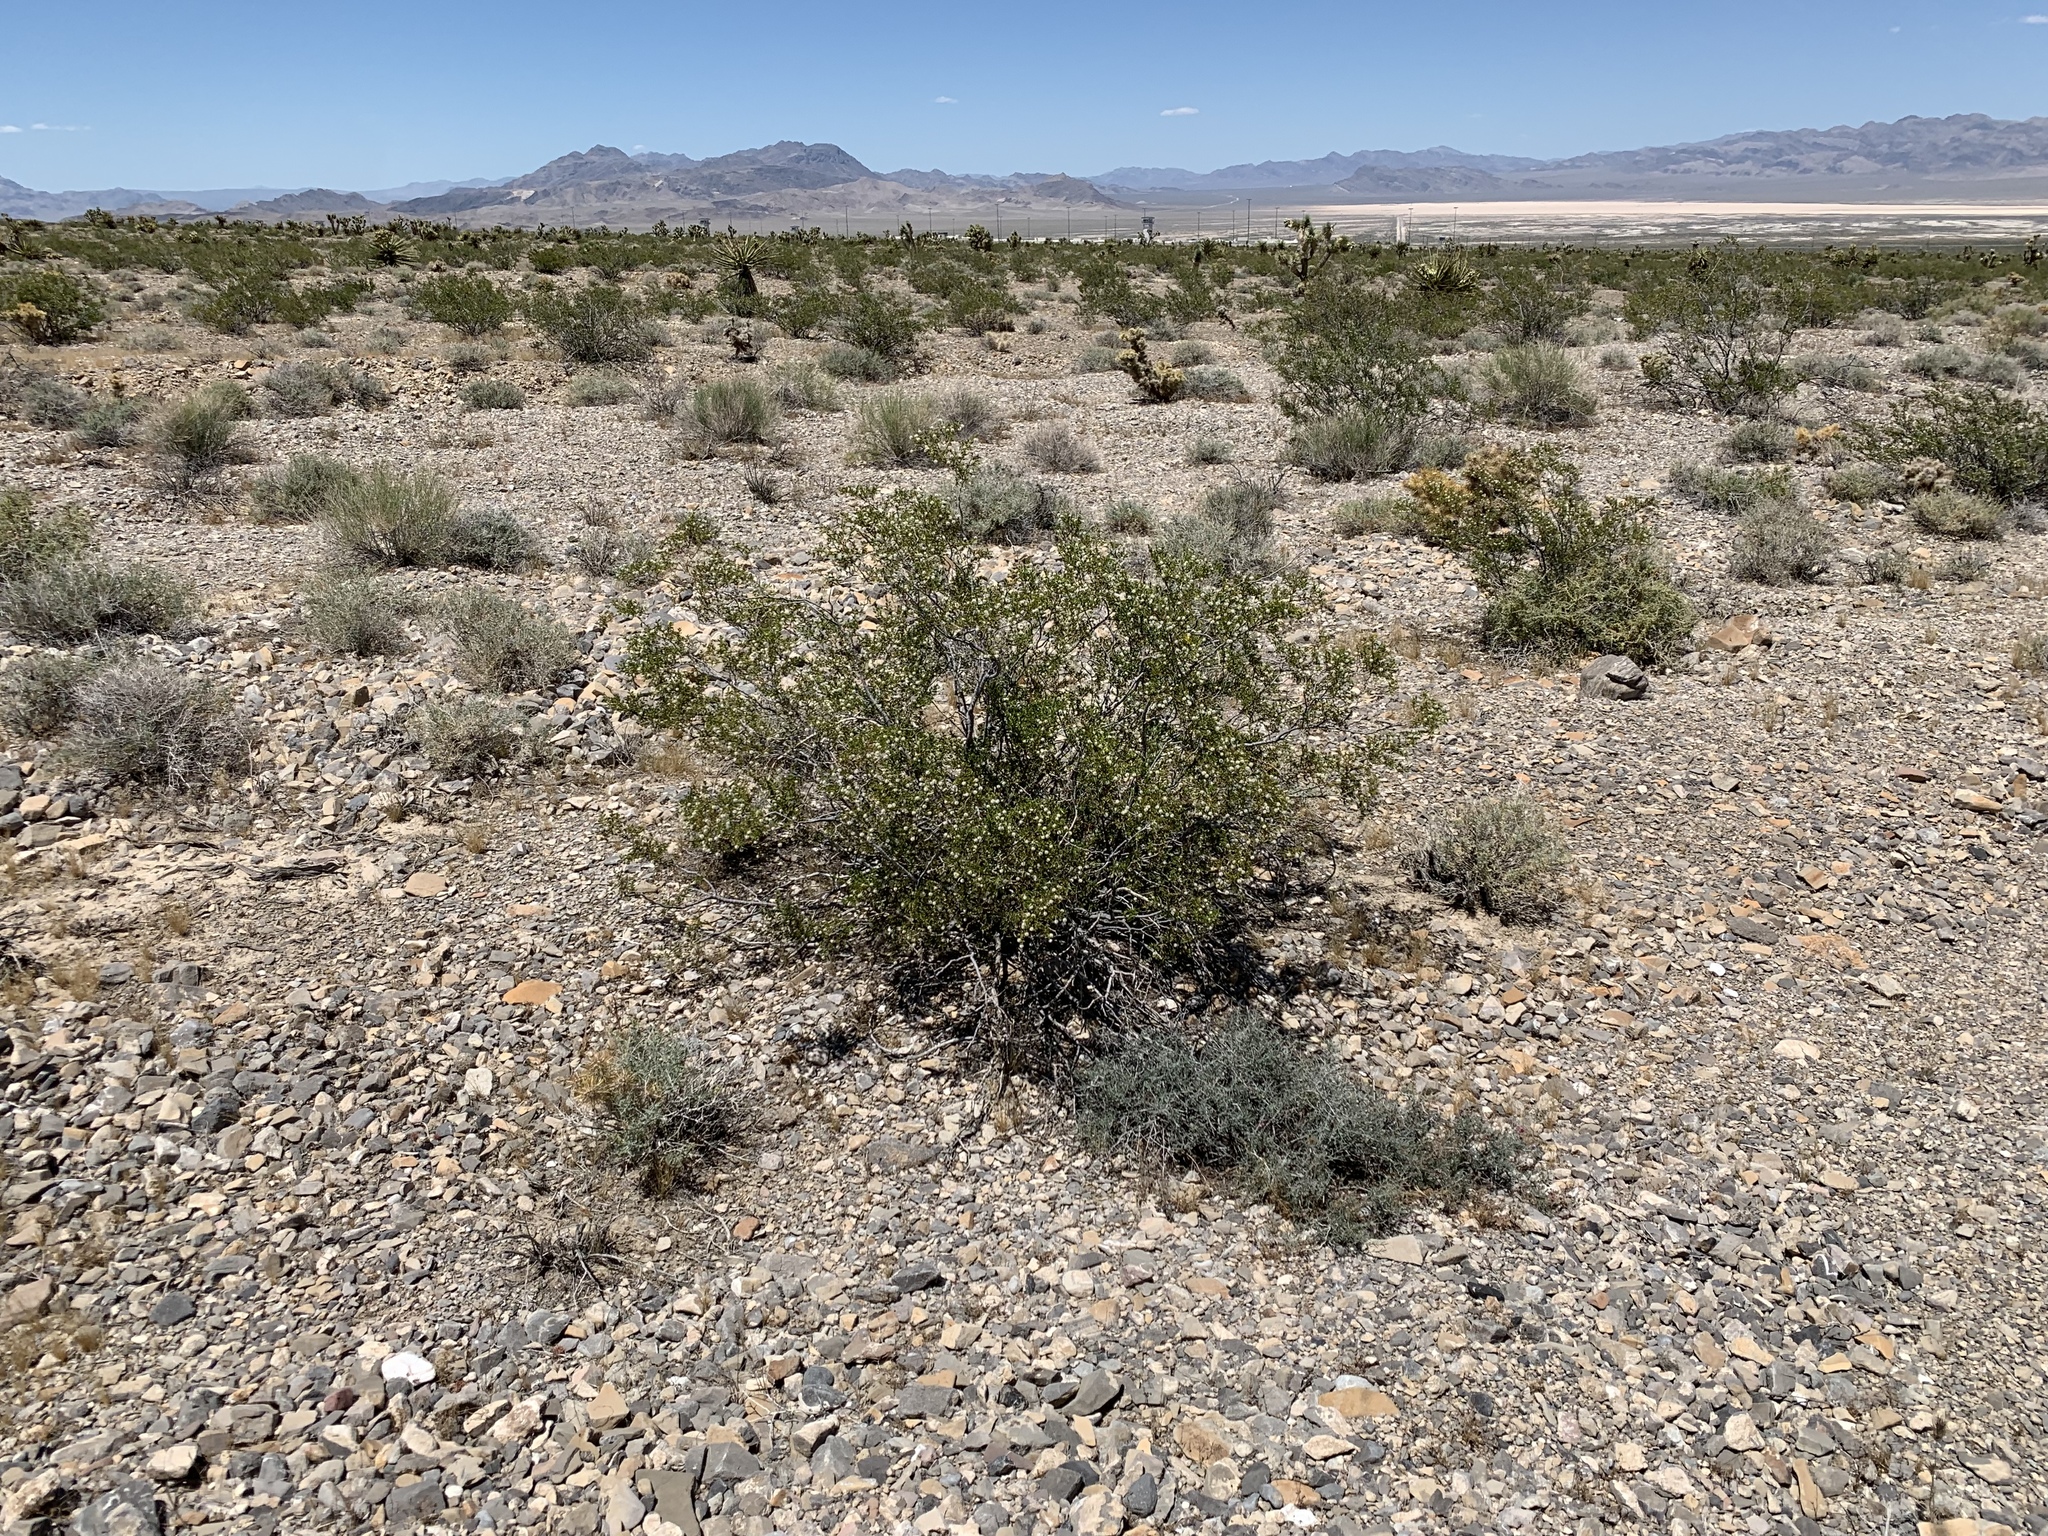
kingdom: Plantae
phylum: Tracheophyta
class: Magnoliopsida
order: Zygophyllales
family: Zygophyllaceae
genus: Larrea
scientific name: Larrea tridentata
